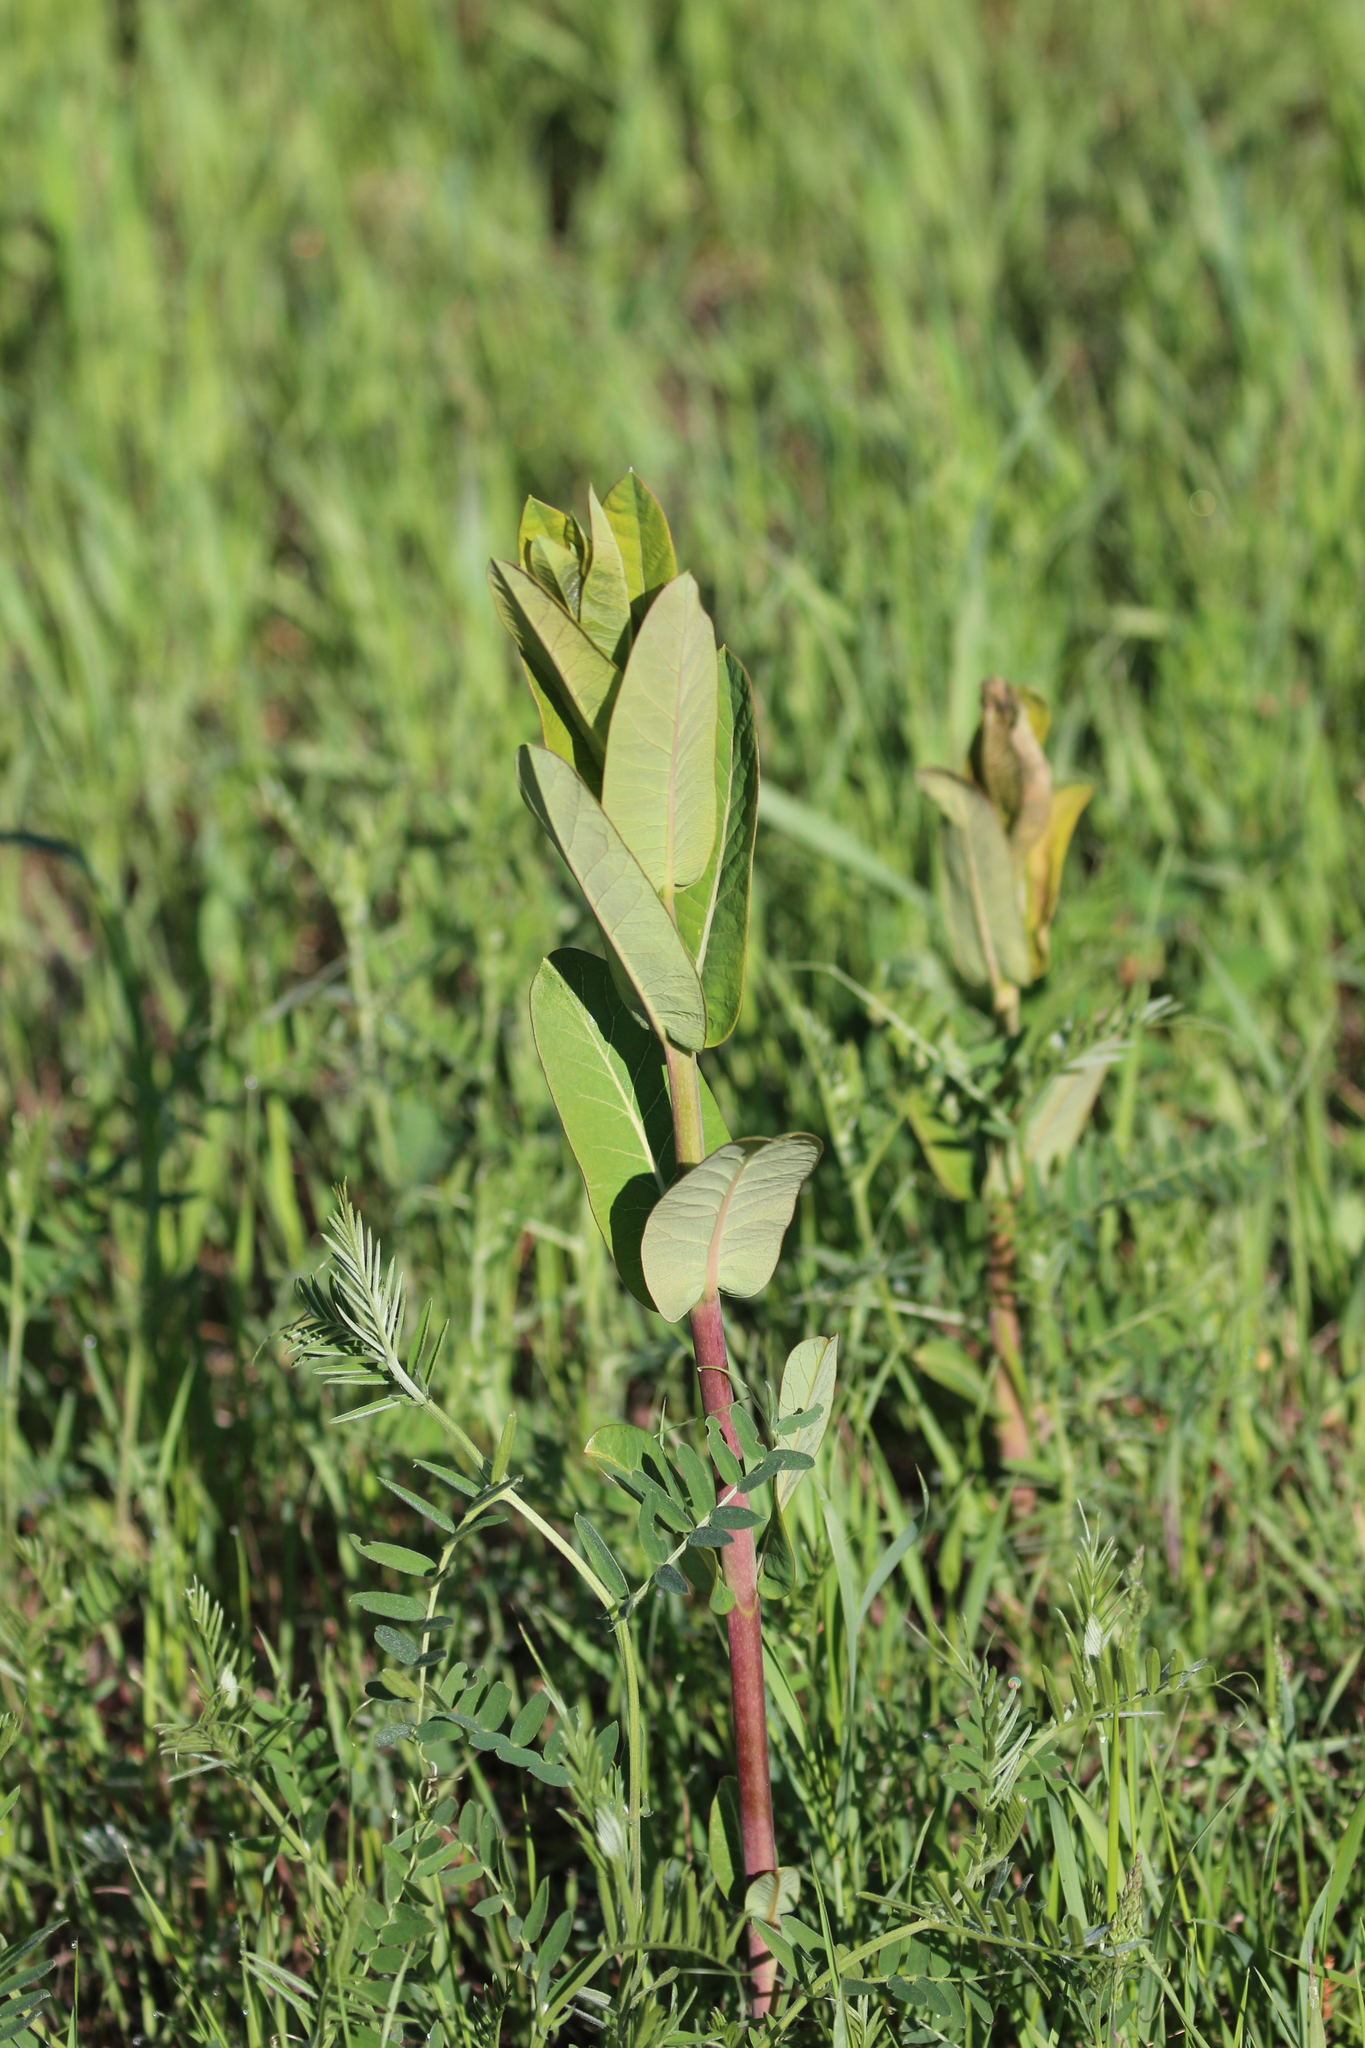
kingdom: Plantae
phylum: Tracheophyta
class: Magnoliopsida
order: Gentianales
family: Apocynaceae
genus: Asclepias
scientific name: Asclepias syriaca
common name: Common milkweed
